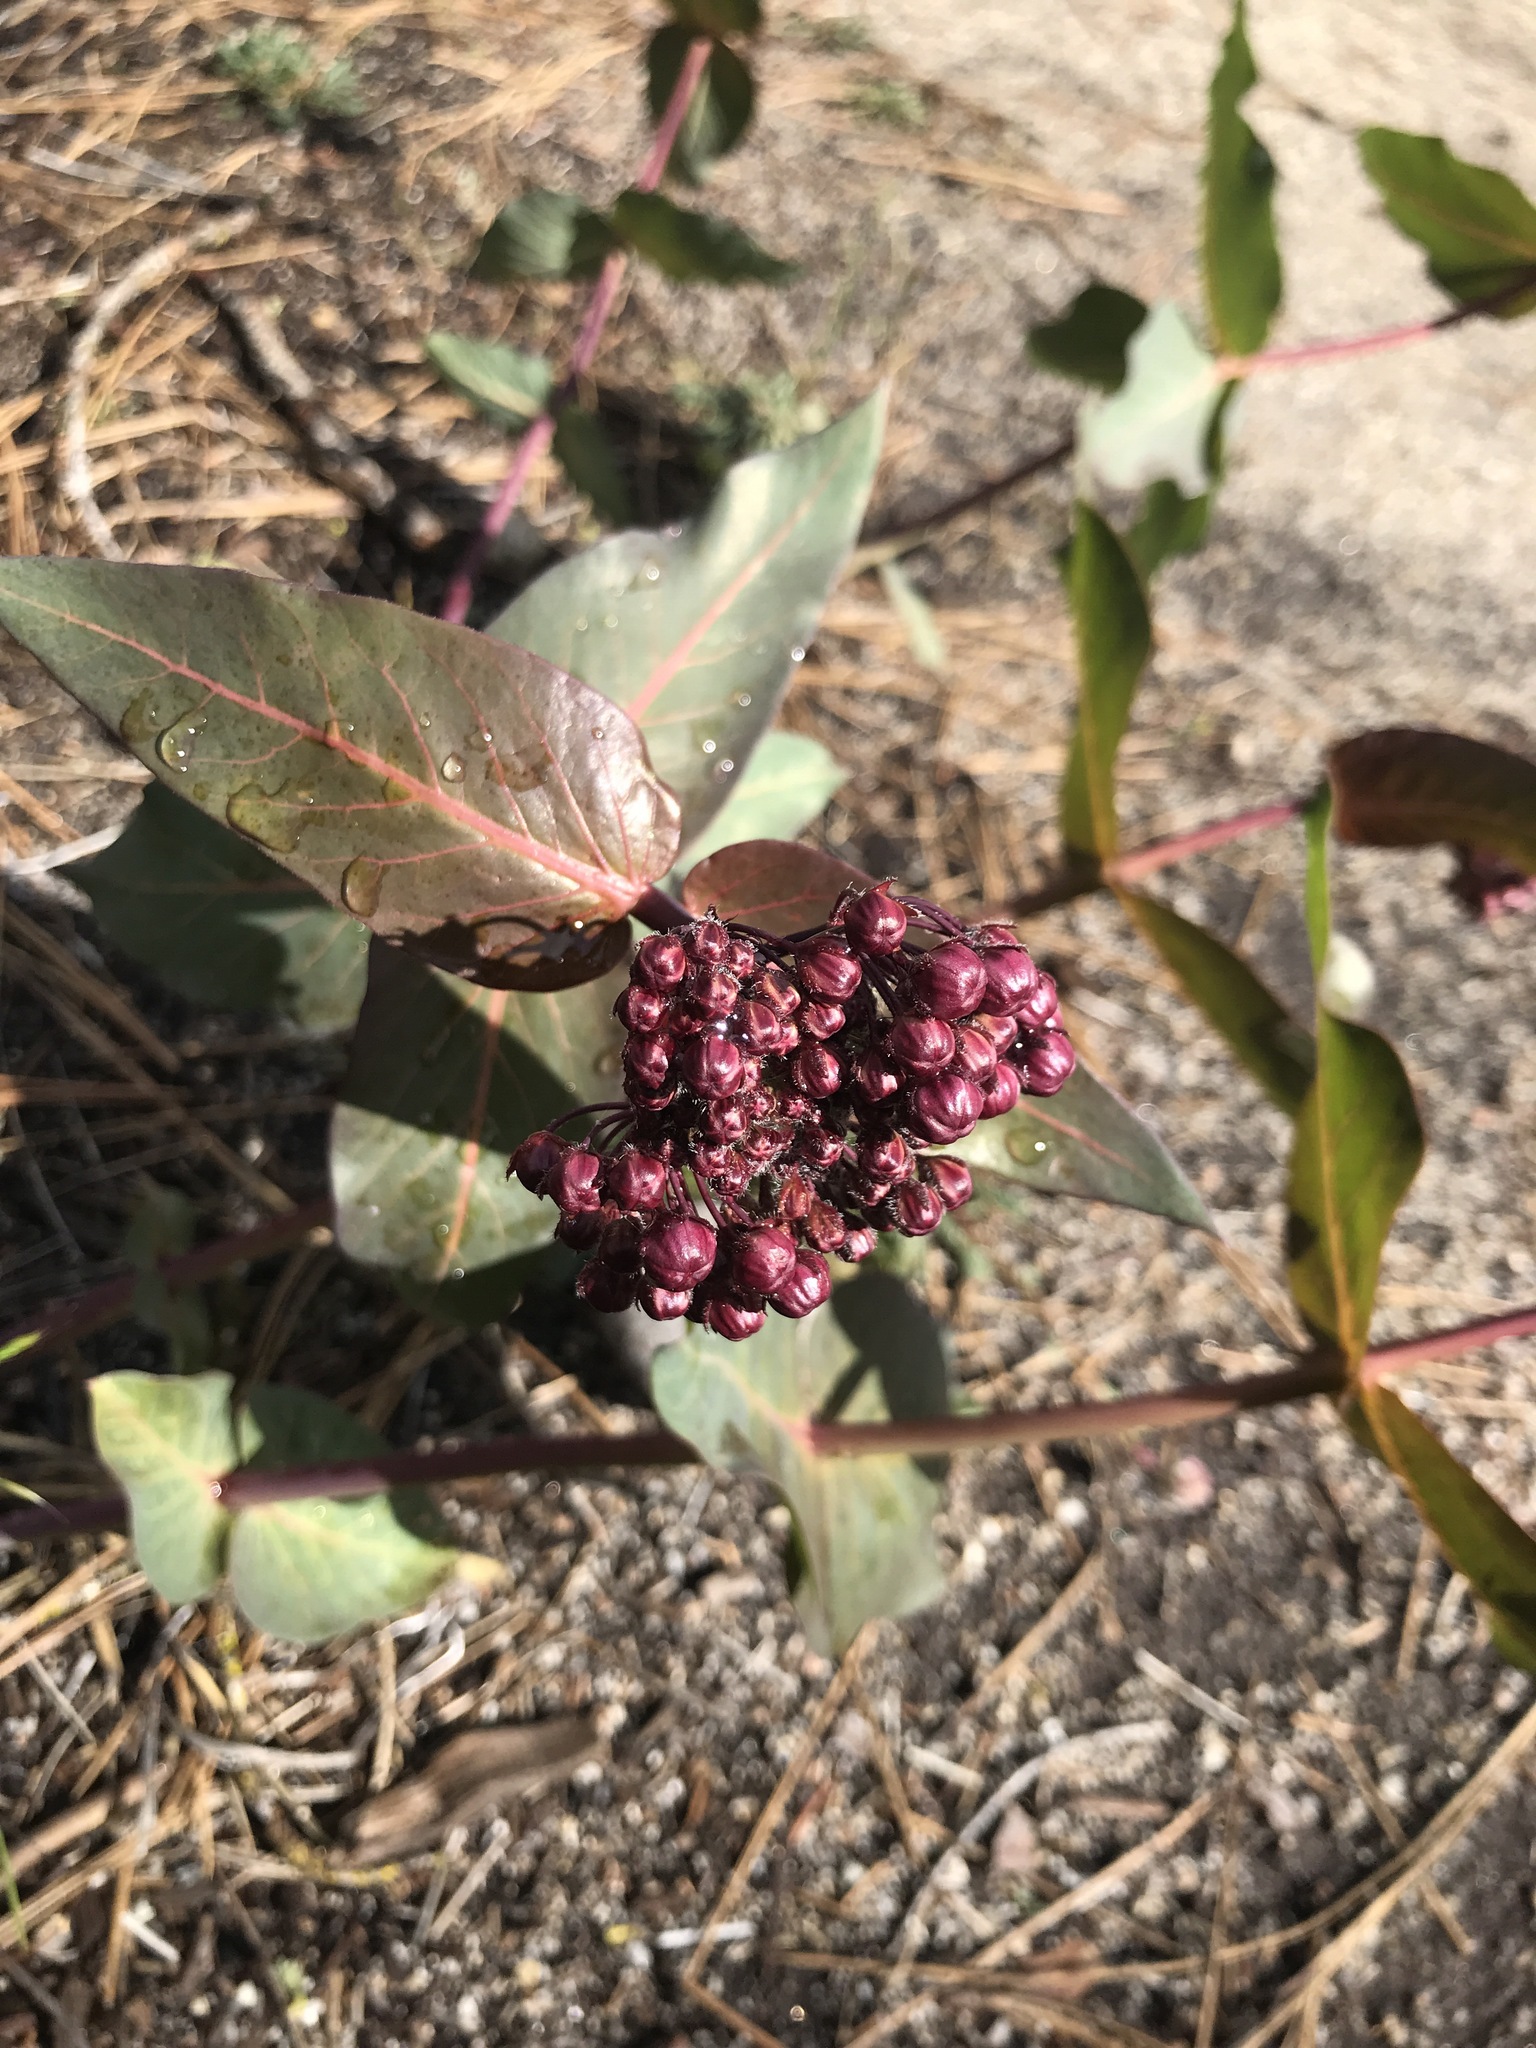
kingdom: Plantae
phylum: Tracheophyta
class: Magnoliopsida
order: Gentianales
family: Apocynaceae
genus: Asclepias
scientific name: Asclepias cordifolia
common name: Purple milkweed
